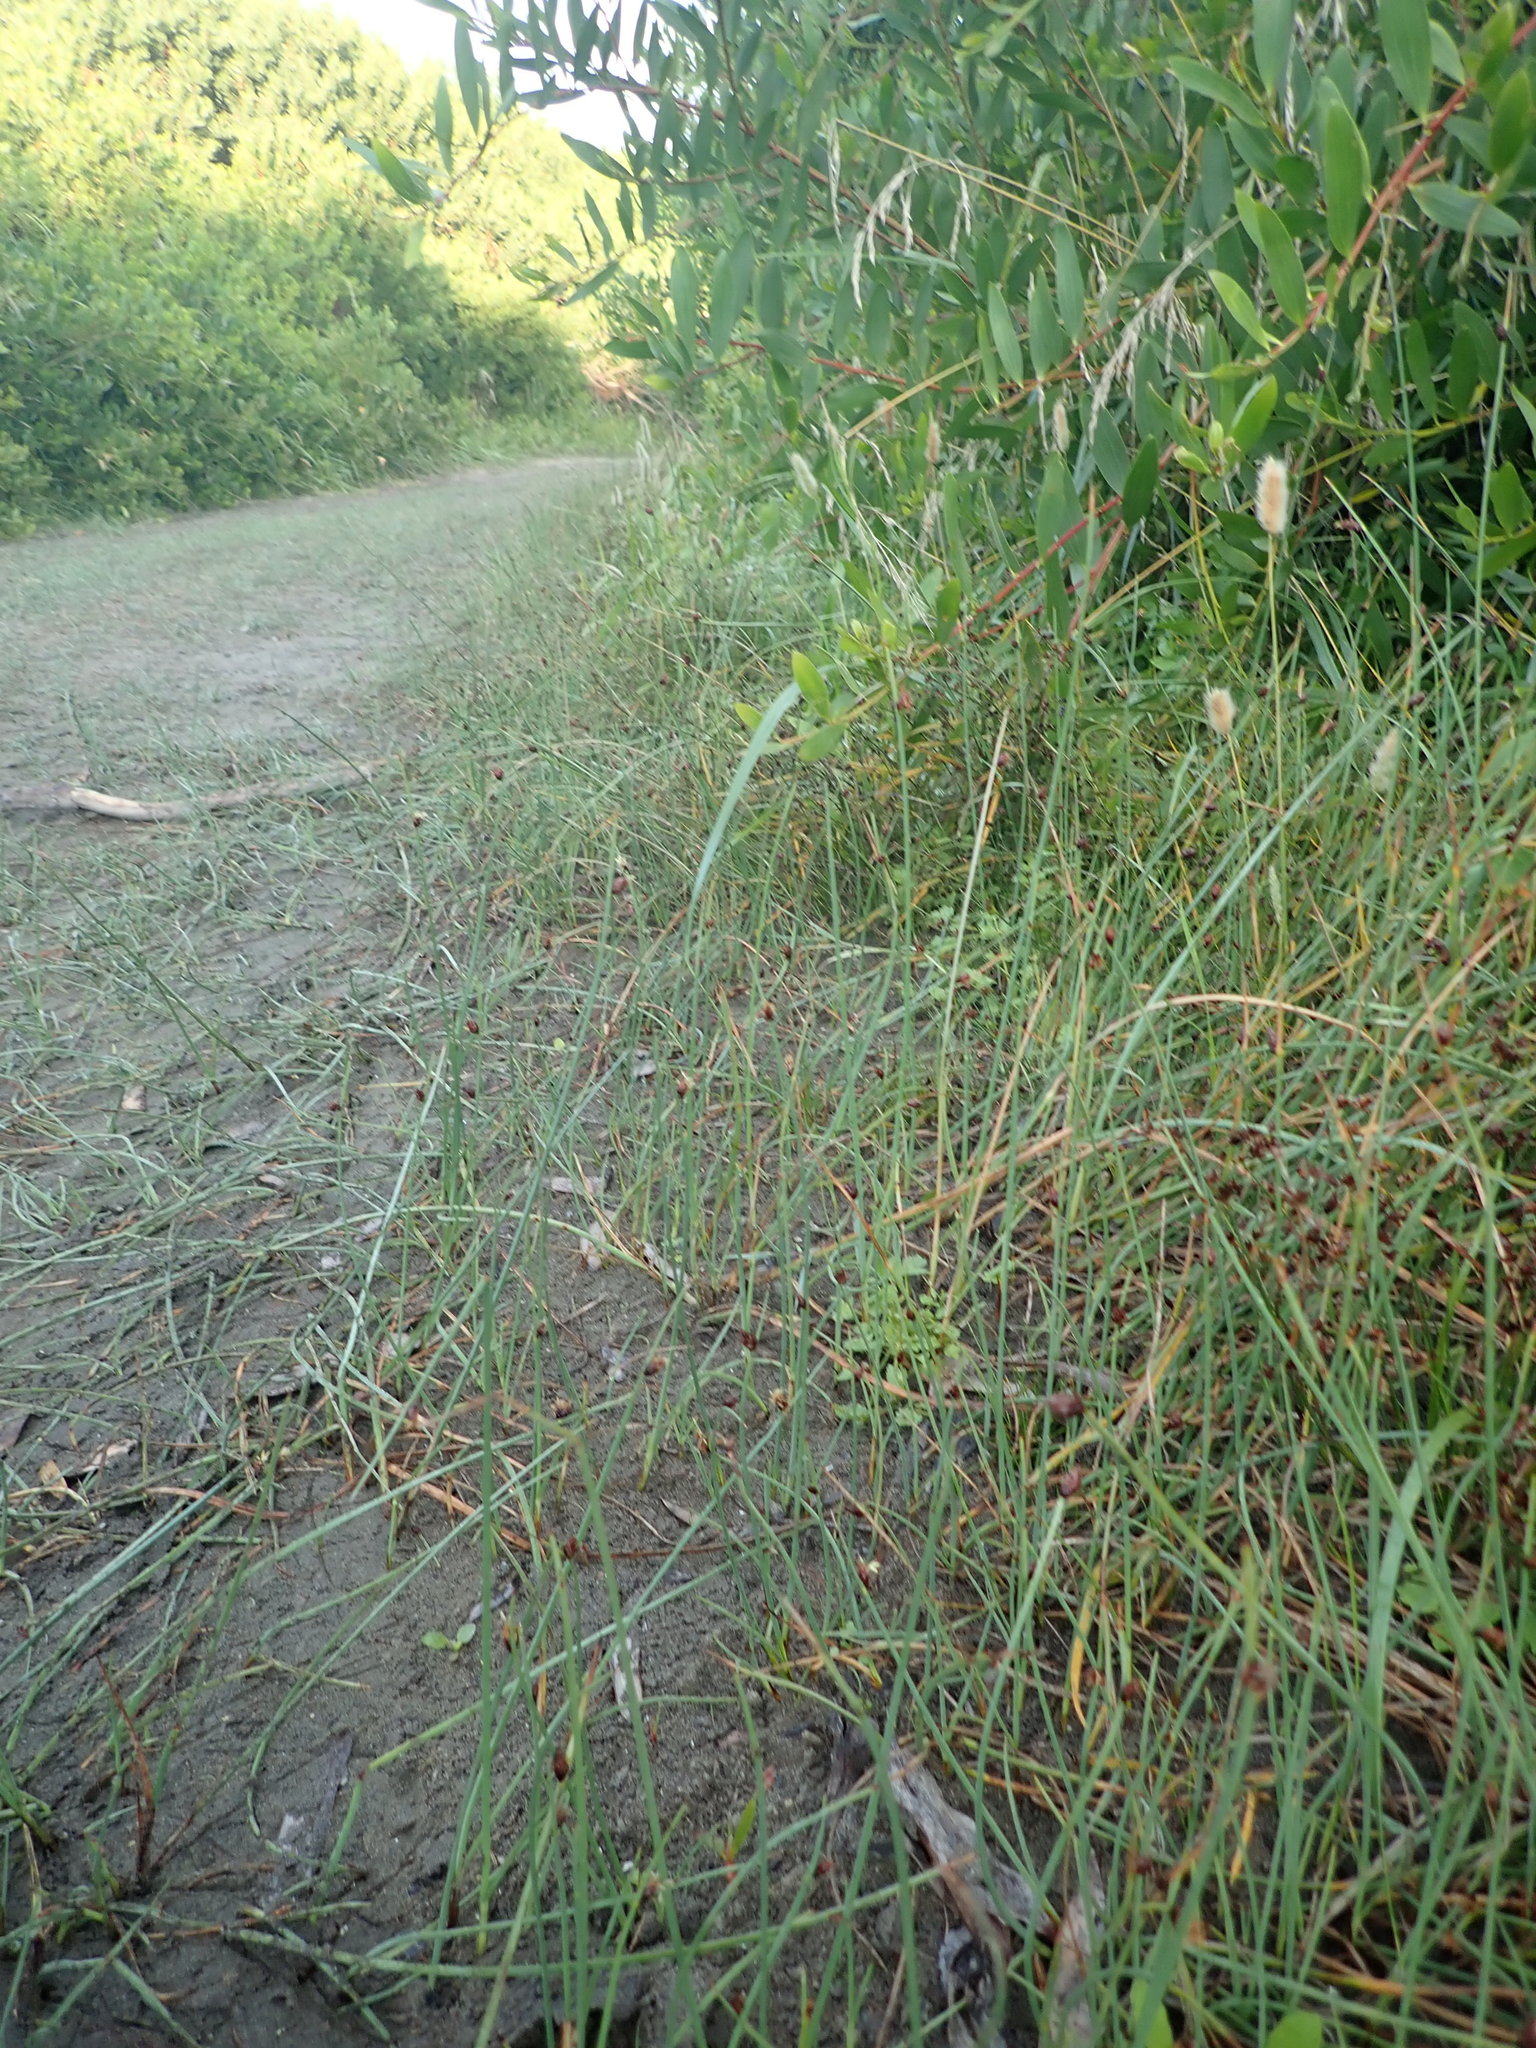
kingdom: Plantae
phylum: Tracheophyta
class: Liliopsida
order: Poales
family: Cyperaceae
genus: Schoenoplectus
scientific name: Schoenoplectus pungens
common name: Sharp club-rush
